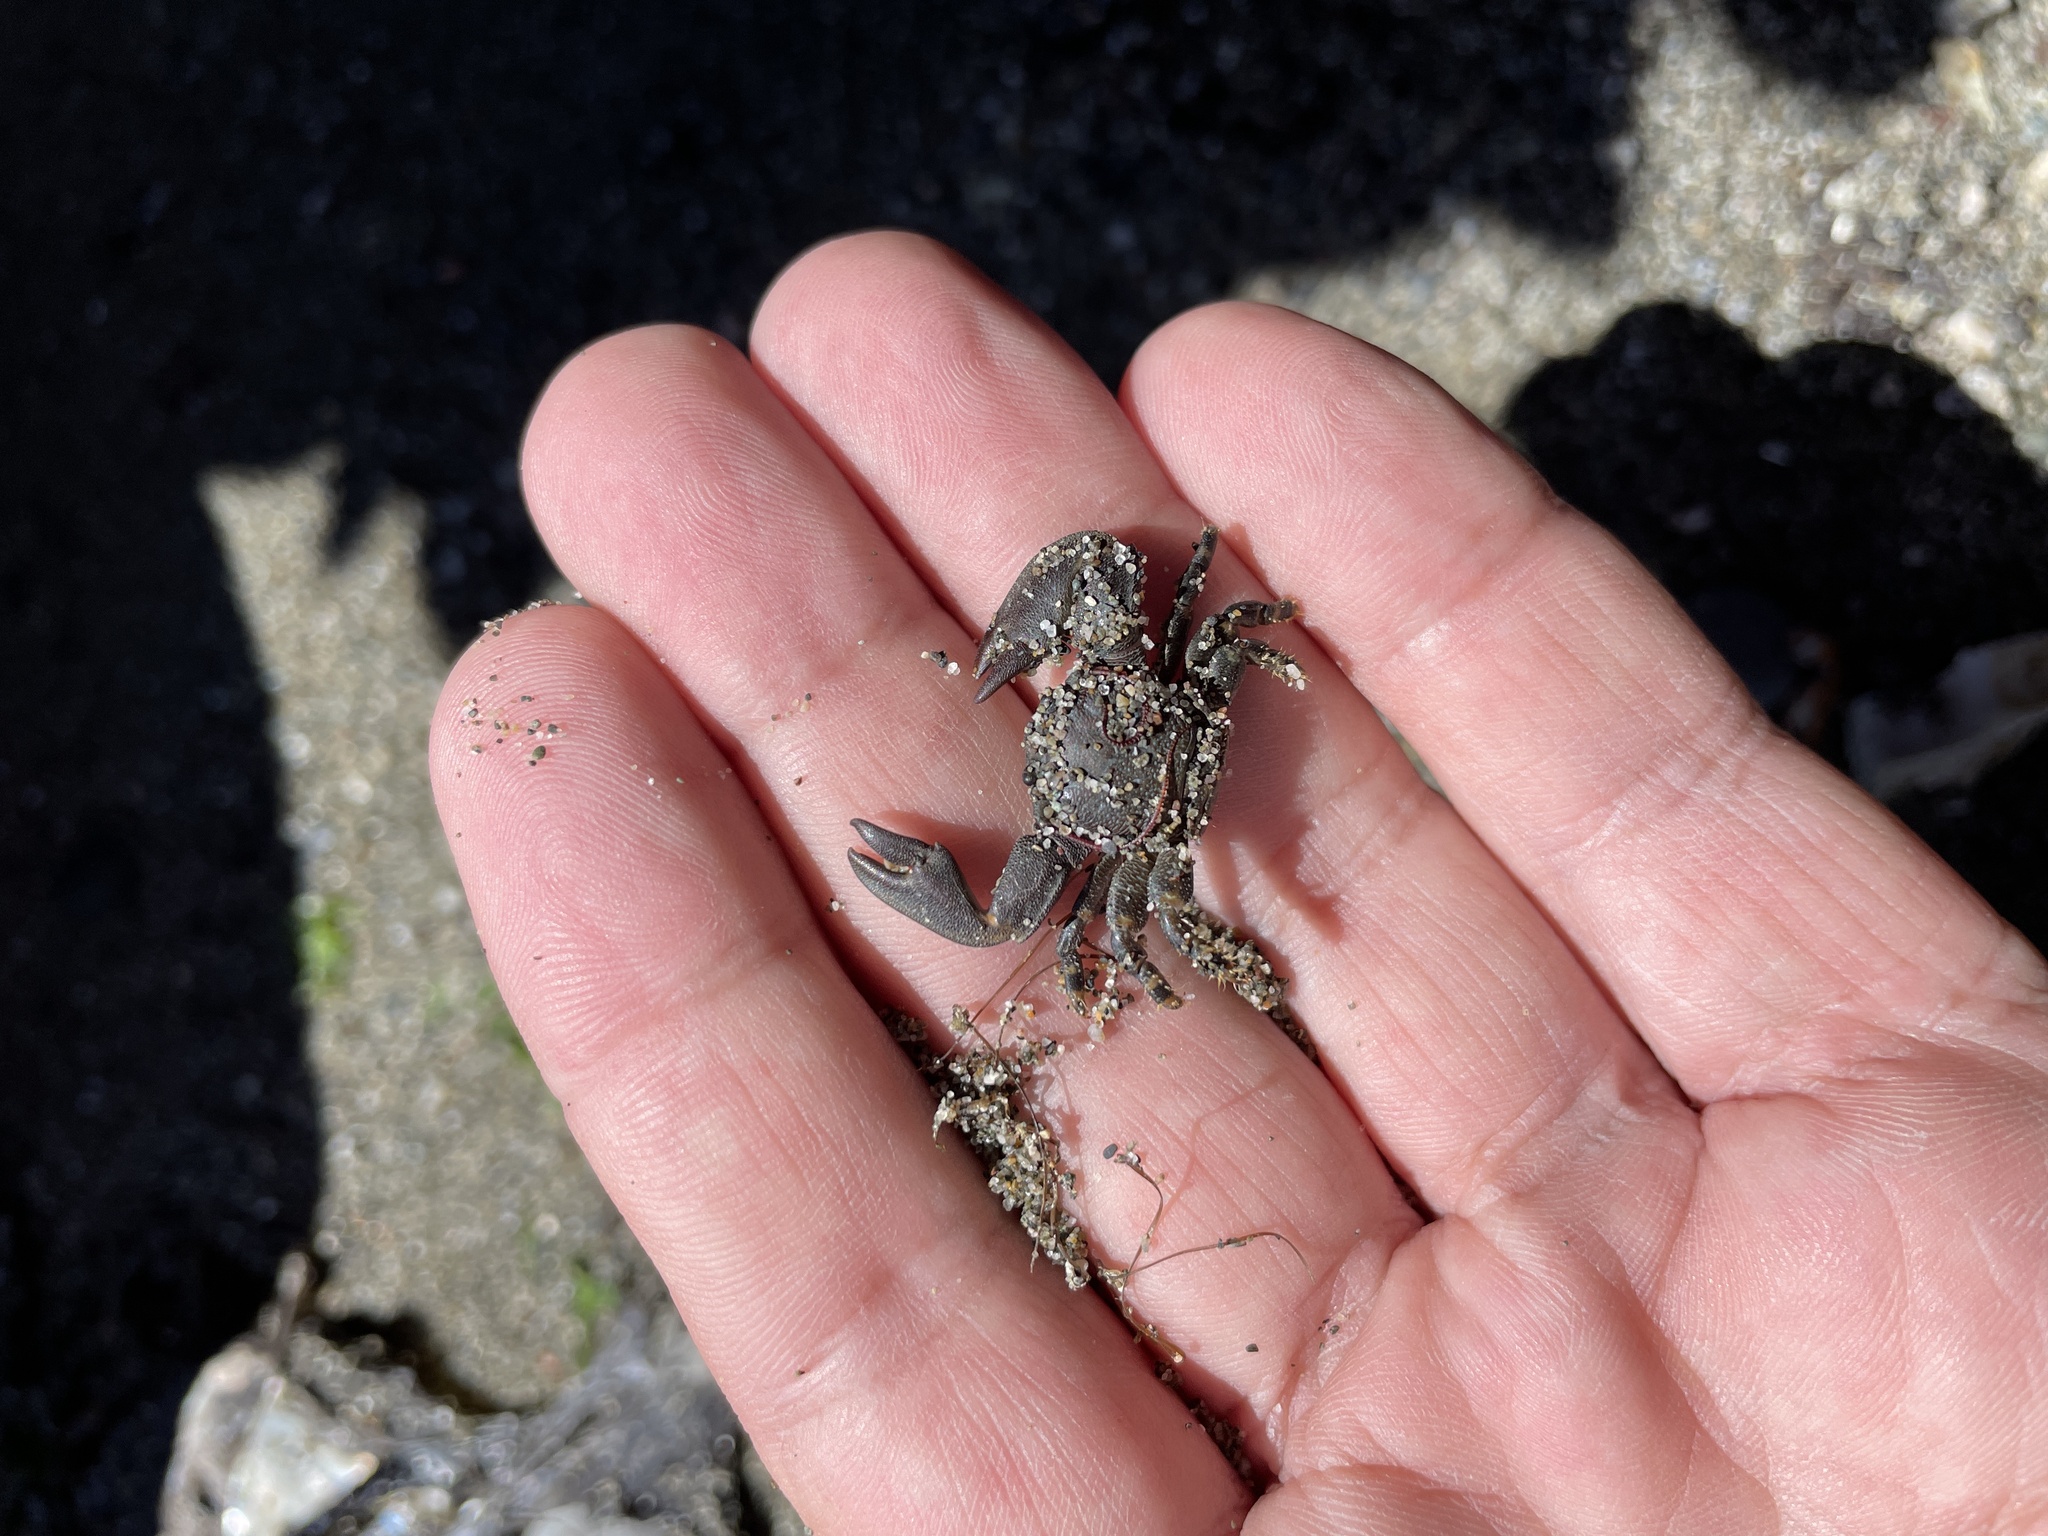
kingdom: Animalia
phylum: Arthropoda
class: Malacostraca
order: Decapoda
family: Porcellanidae
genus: Petrolisthes
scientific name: Petrolisthes cinctipes
